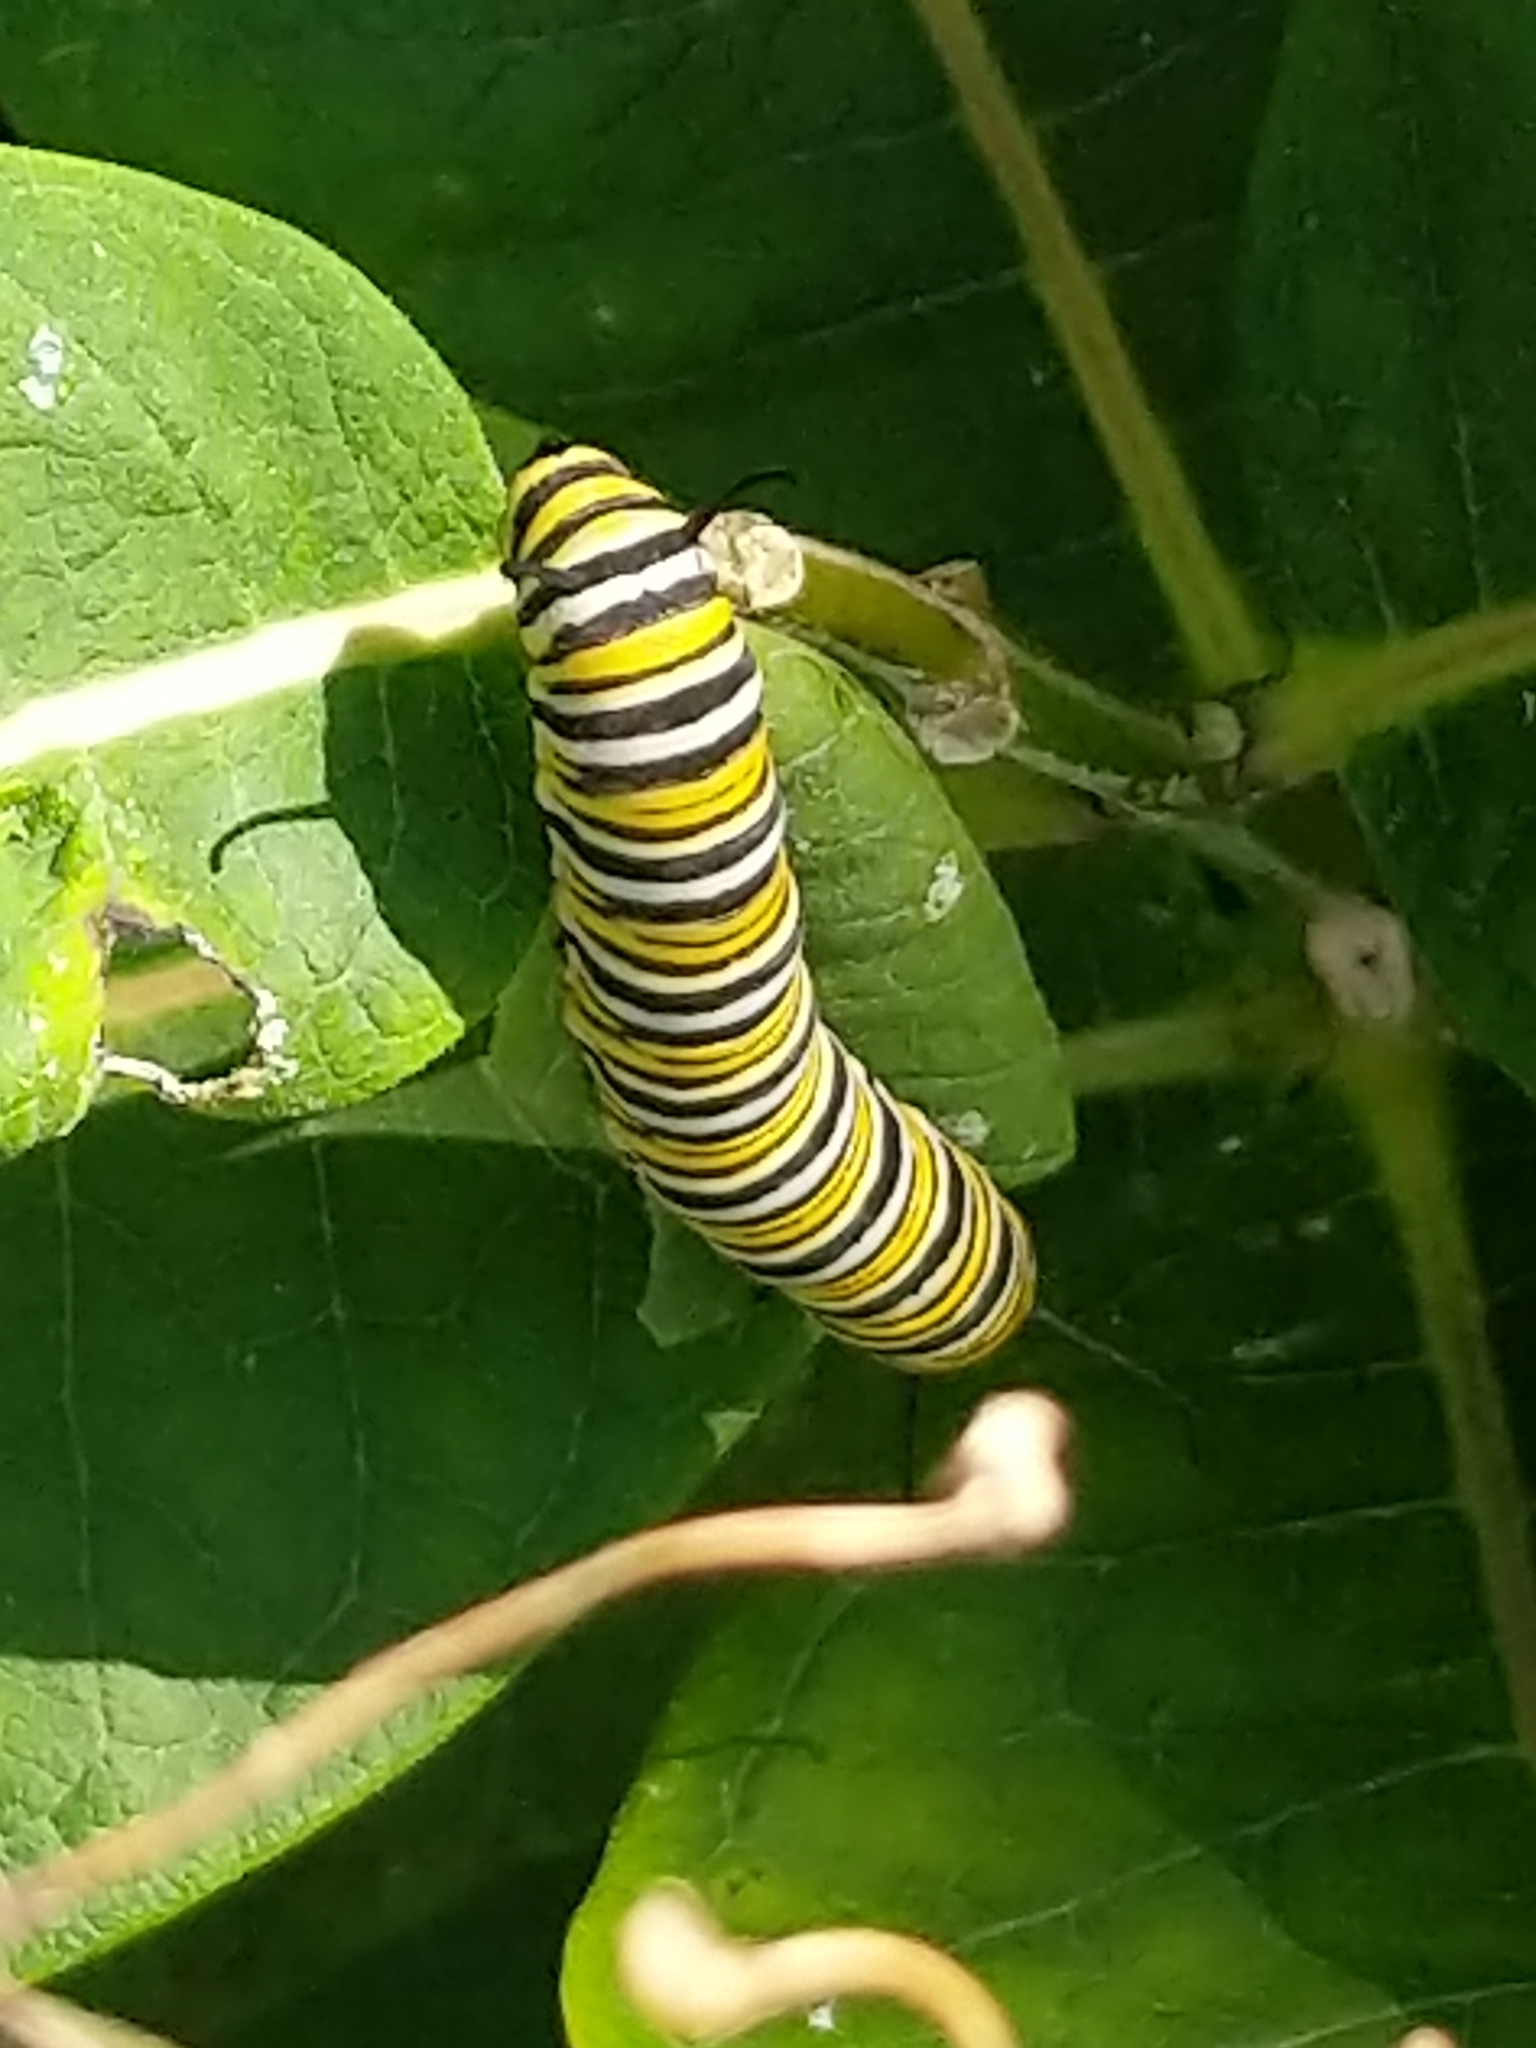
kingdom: Animalia
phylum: Arthropoda
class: Insecta
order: Lepidoptera
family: Nymphalidae
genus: Danaus
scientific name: Danaus plexippus
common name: Monarch
